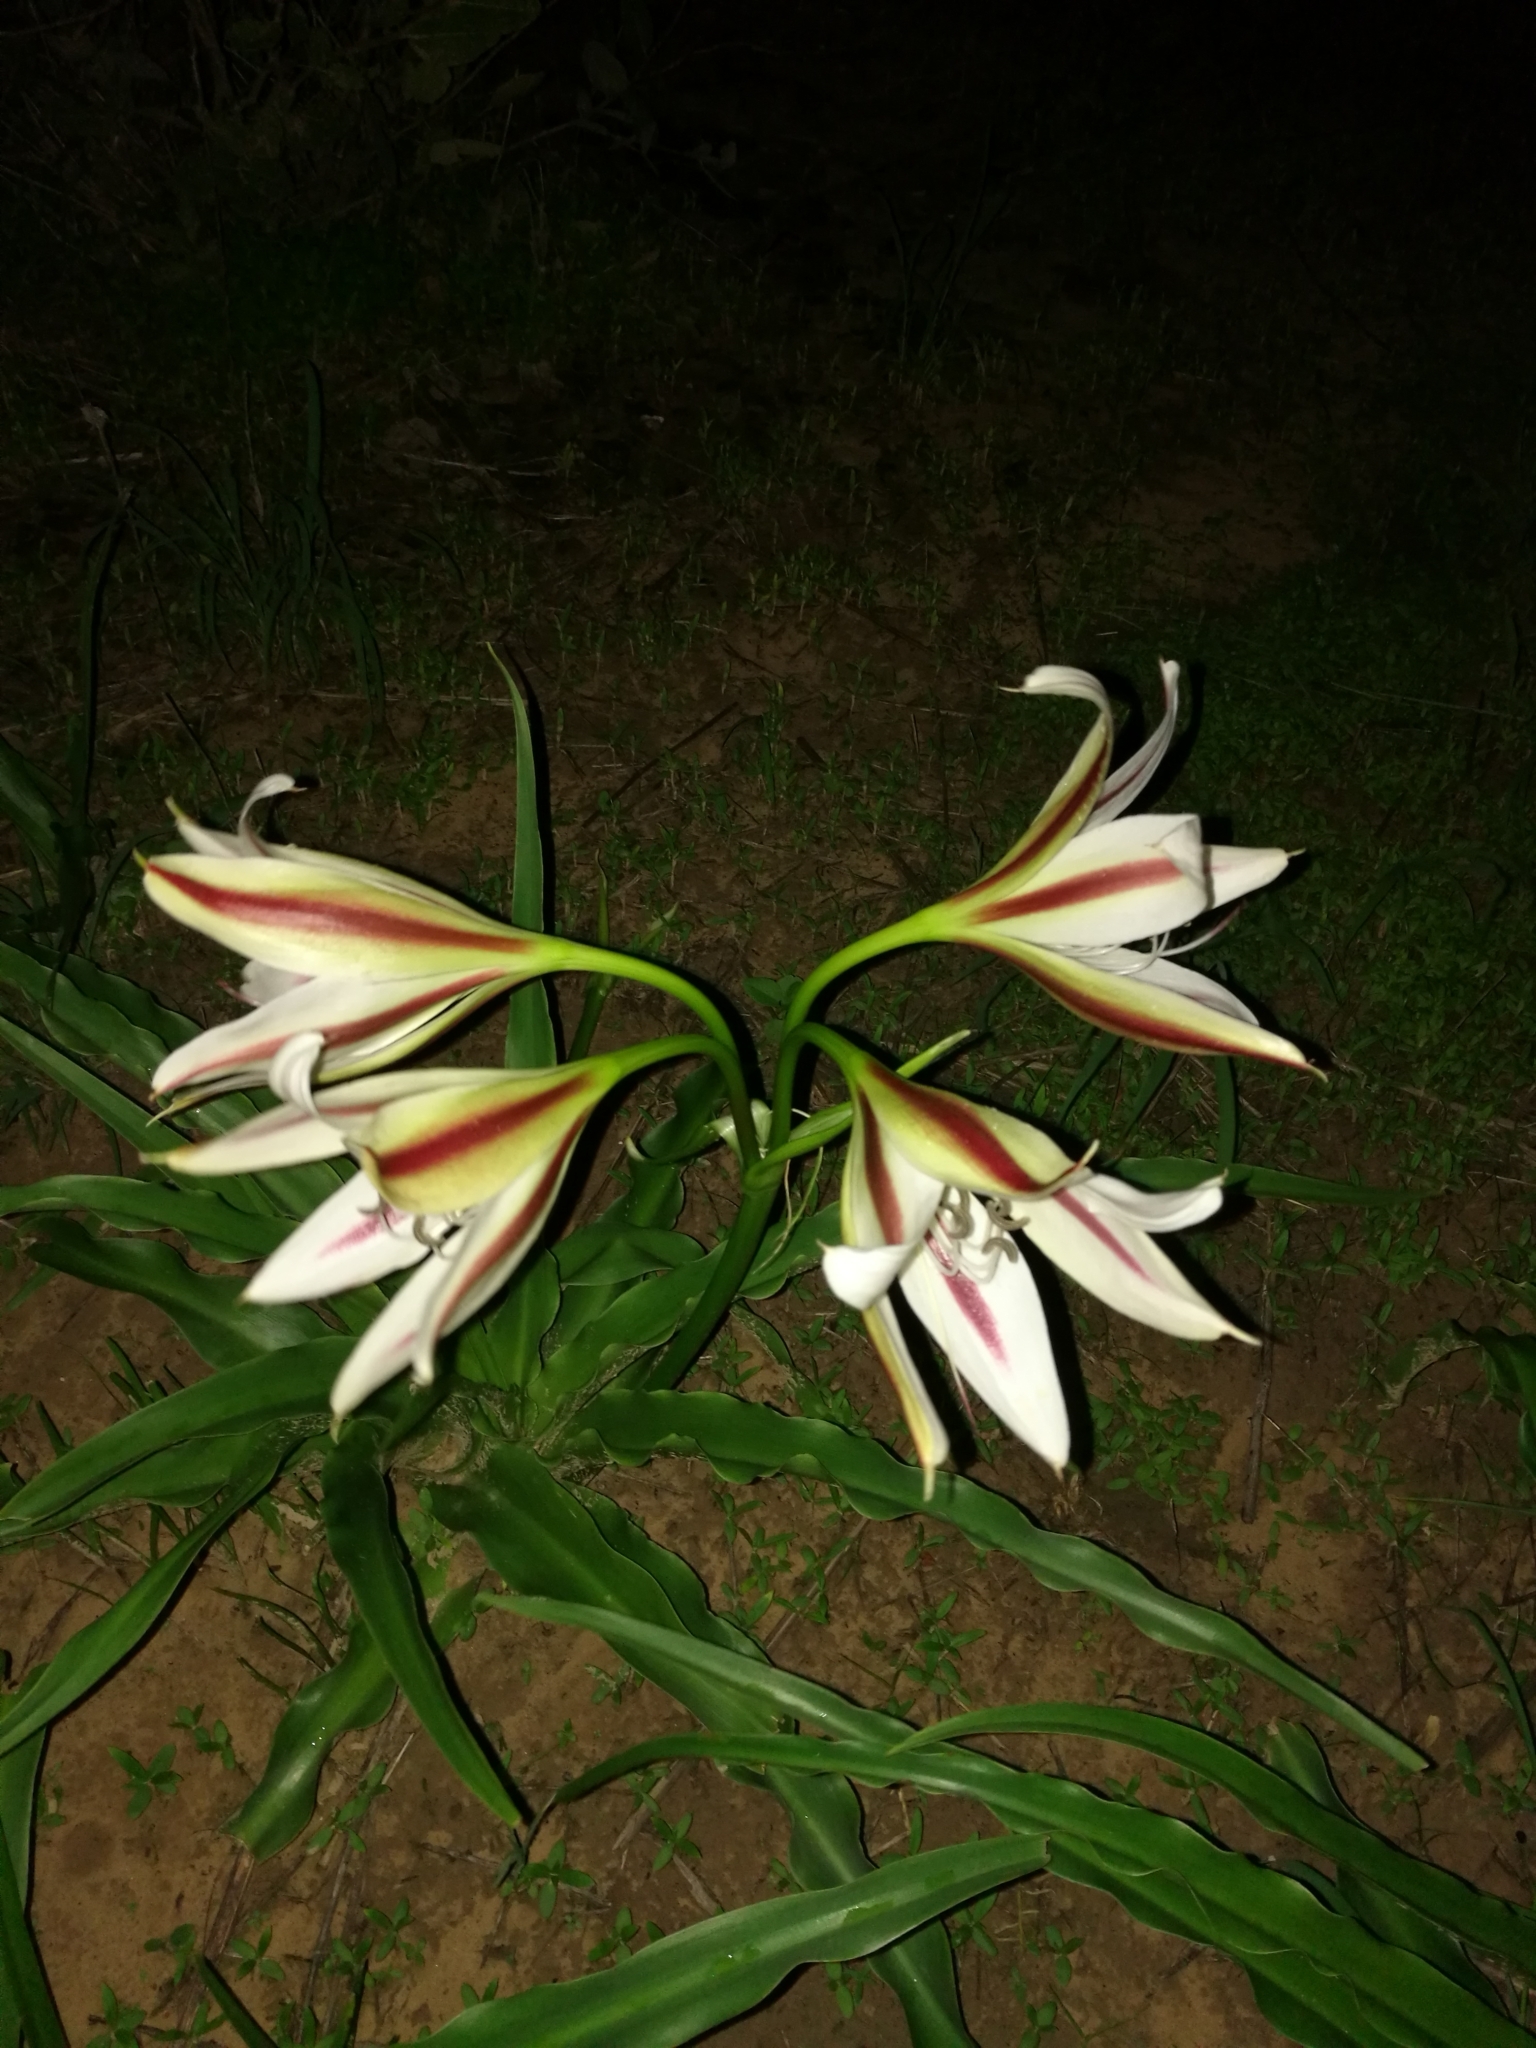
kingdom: Plantae
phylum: Tracheophyta
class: Liliopsida
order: Asparagales
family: Amaryllidaceae
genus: Crinum
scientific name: Crinum ornatum
